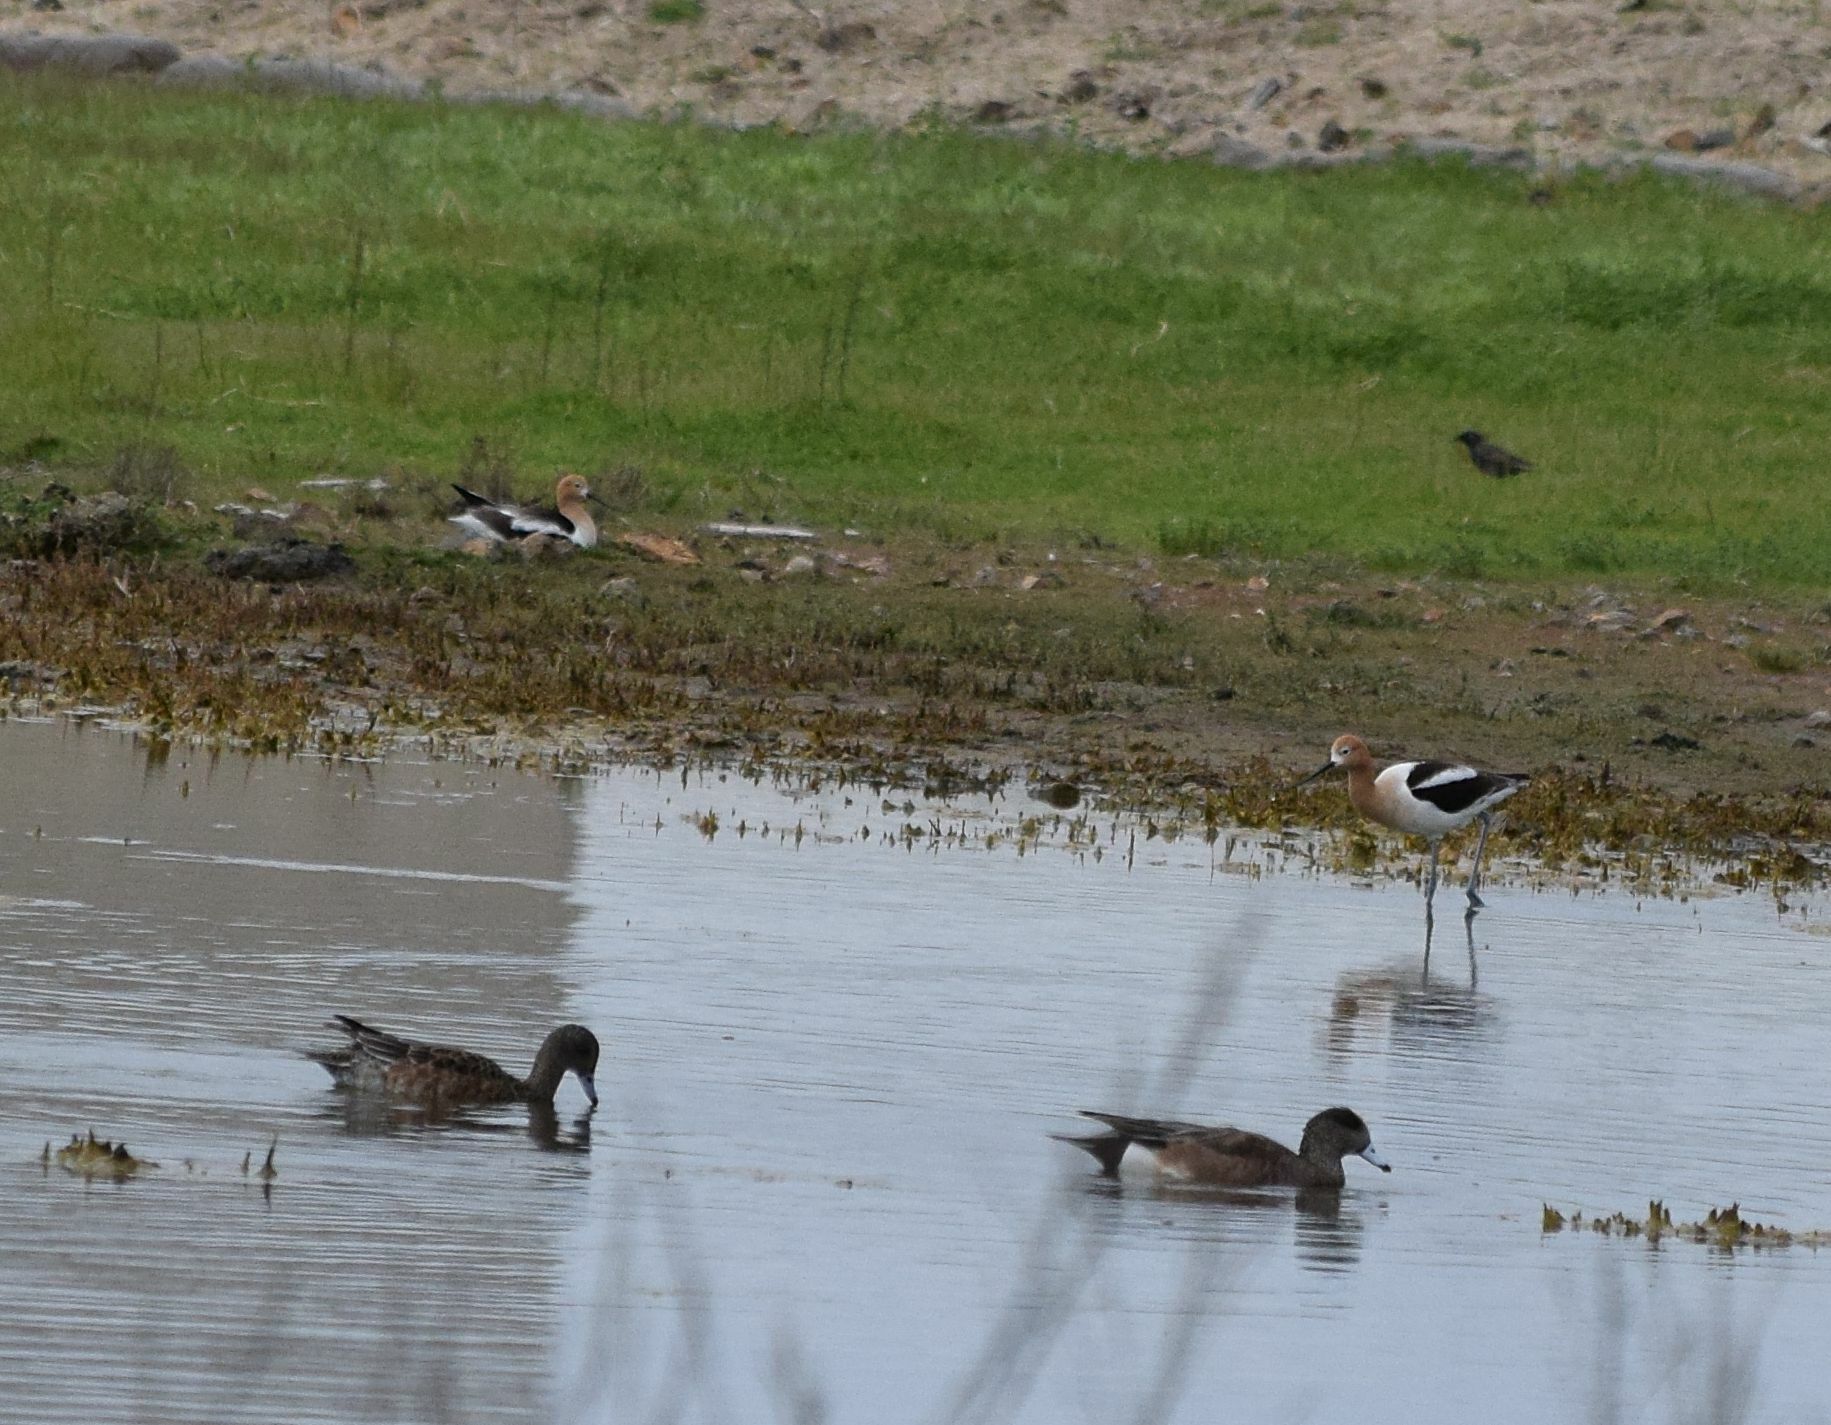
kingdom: Animalia
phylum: Chordata
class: Aves
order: Charadriiformes
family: Recurvirostridae
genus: Recurvirostra
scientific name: Recurvirostra americana
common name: American avocet
